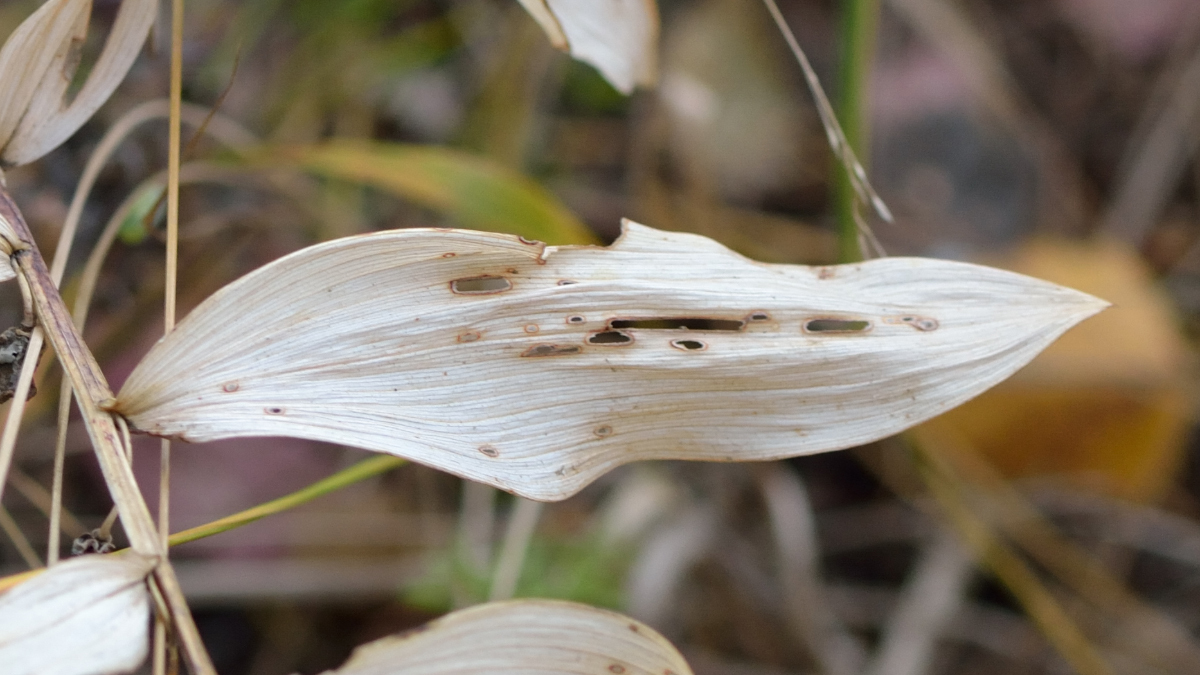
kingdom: Plantae
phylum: Tracheophyta
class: Liliopsida
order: Asparagales
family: Asparagaceae
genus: Polygonatum
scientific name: Polygonatum odoratum
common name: Angular solomon's-seal
